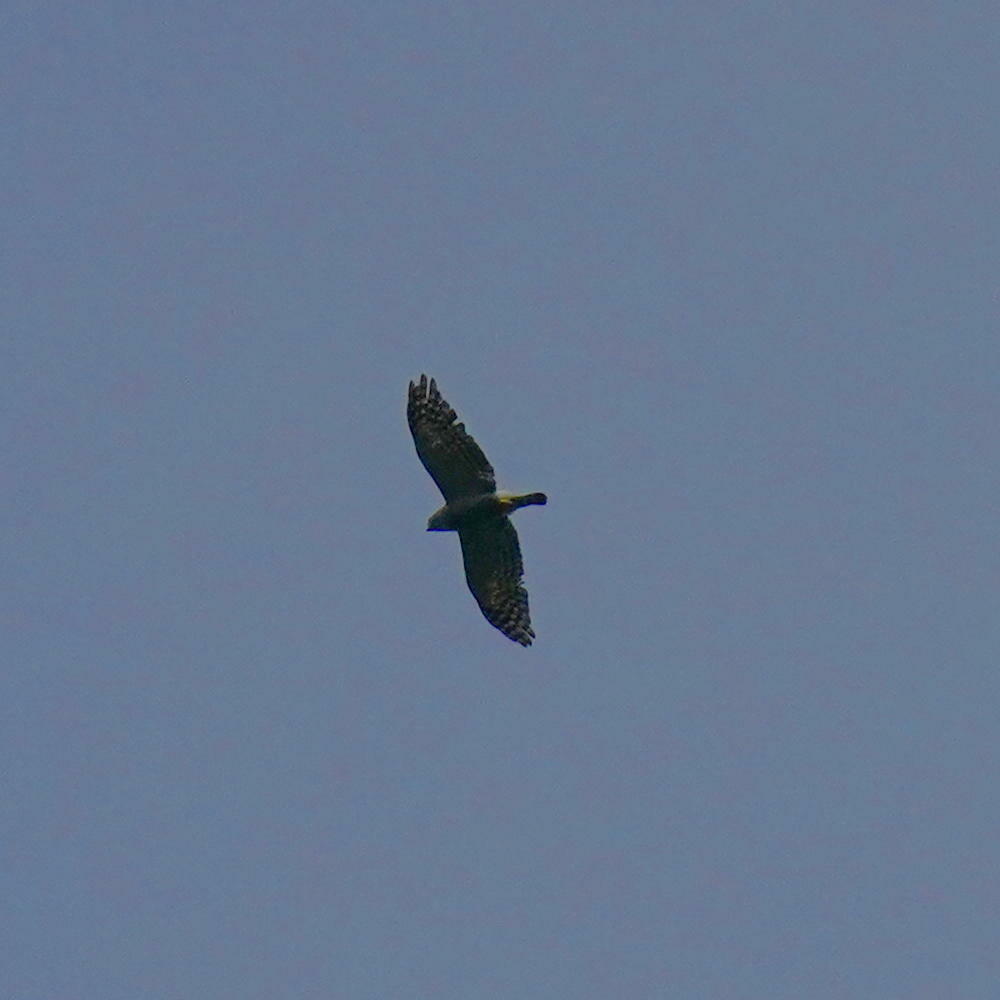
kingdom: Animalia
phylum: Chordata
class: Aves
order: Accipitriformes
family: Accipitridae
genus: Harpagus
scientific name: Harpagus bidentatus
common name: Double-toothed kite
